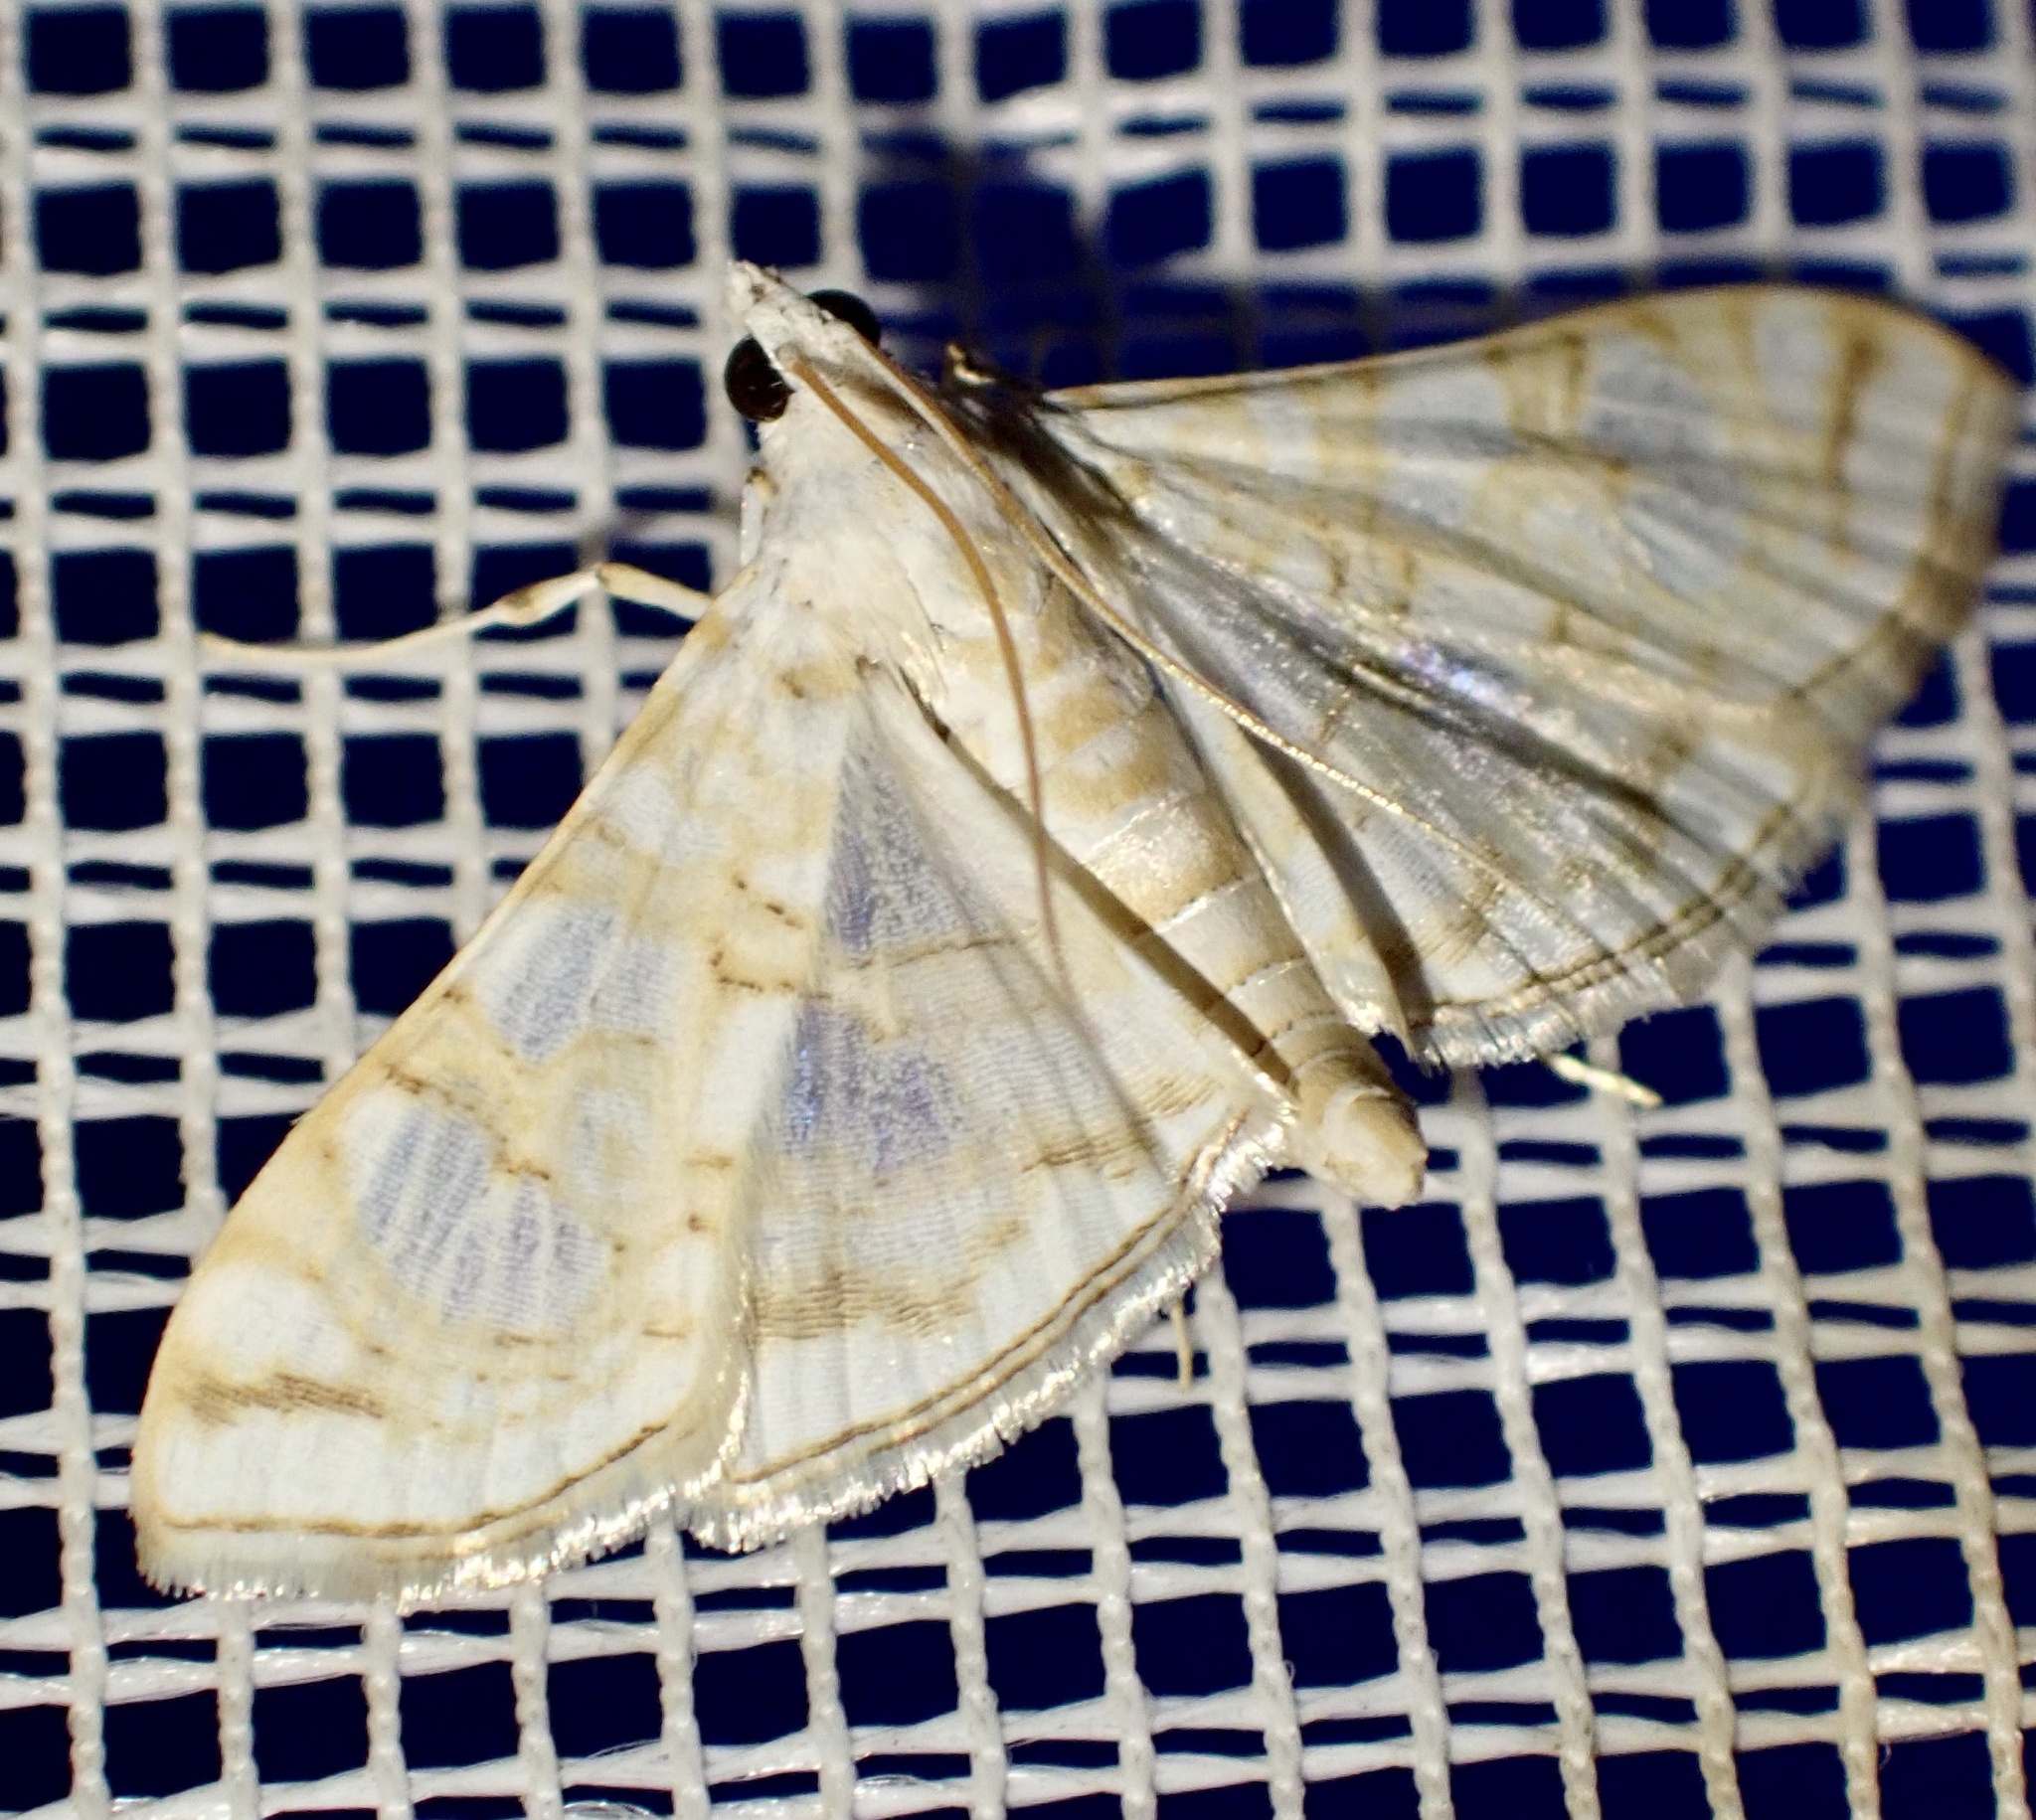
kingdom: Animalia
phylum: Arthropoda
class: Insecta
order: Lepidoptera
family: Crambidae
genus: Synclera
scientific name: Synclera
